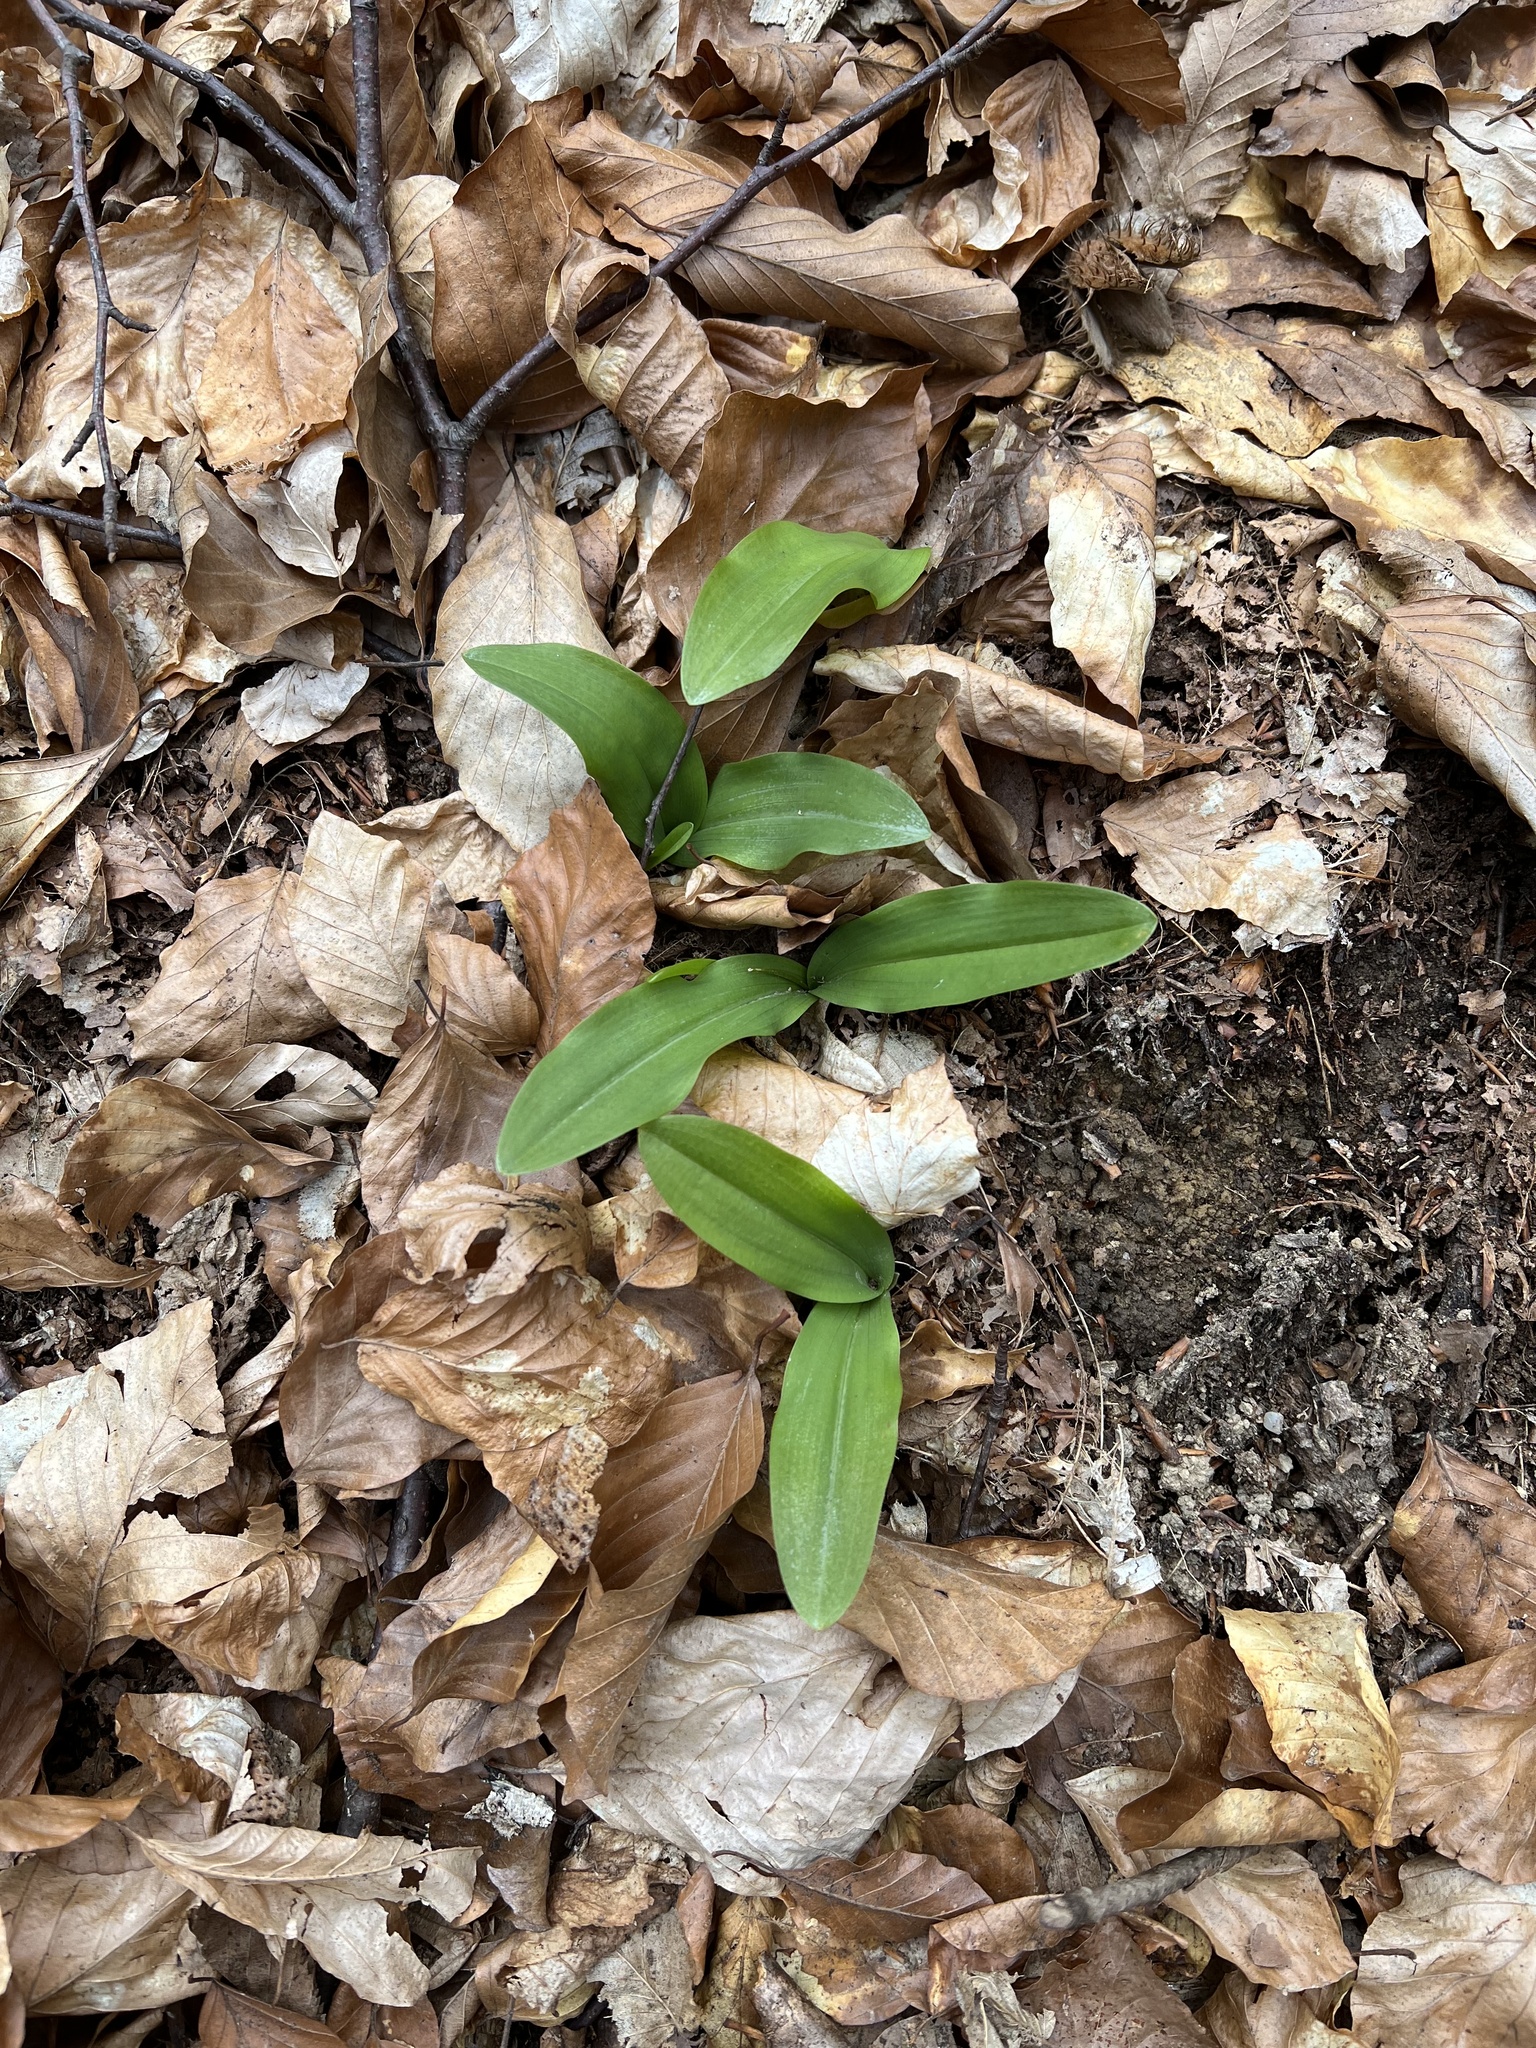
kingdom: Plantae
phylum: Tracheophyta
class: Liliopsida
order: Asparagales
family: Amaryllidaceae
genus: Allium
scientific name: Allium ursinum
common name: Ramsons
